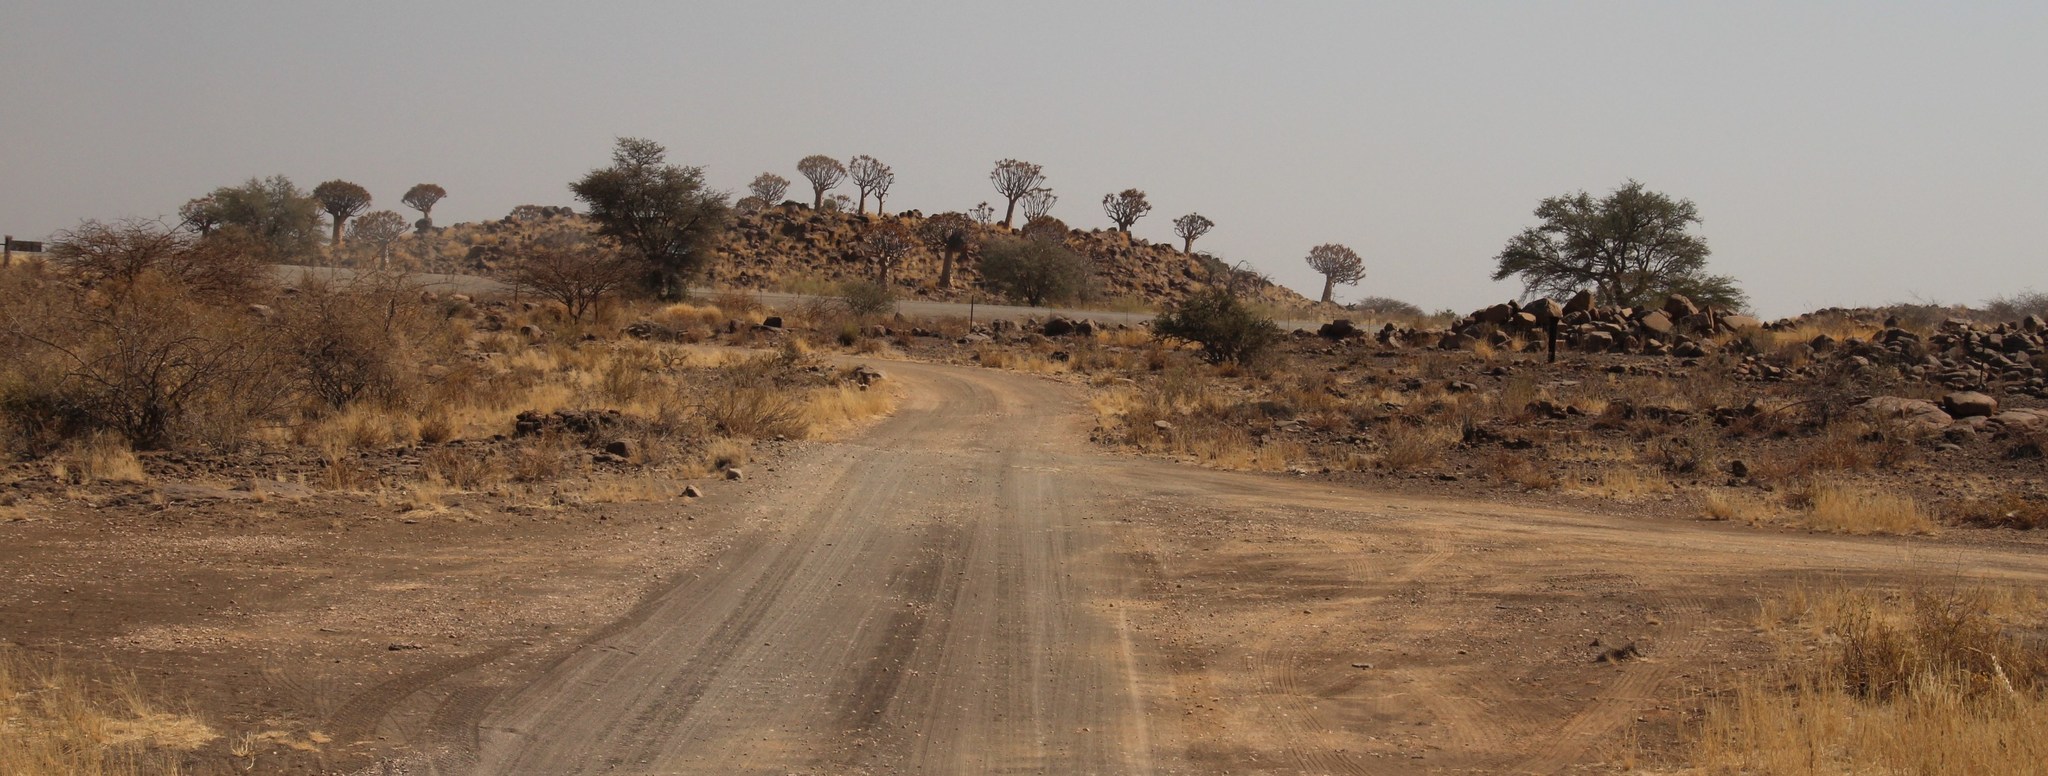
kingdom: Plantae
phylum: Tracheophyta
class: Liliopsida
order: Asparagales
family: Asphodelaceae
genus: Aloidendron
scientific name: Aloidendron dichotomum
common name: Quiver tree
